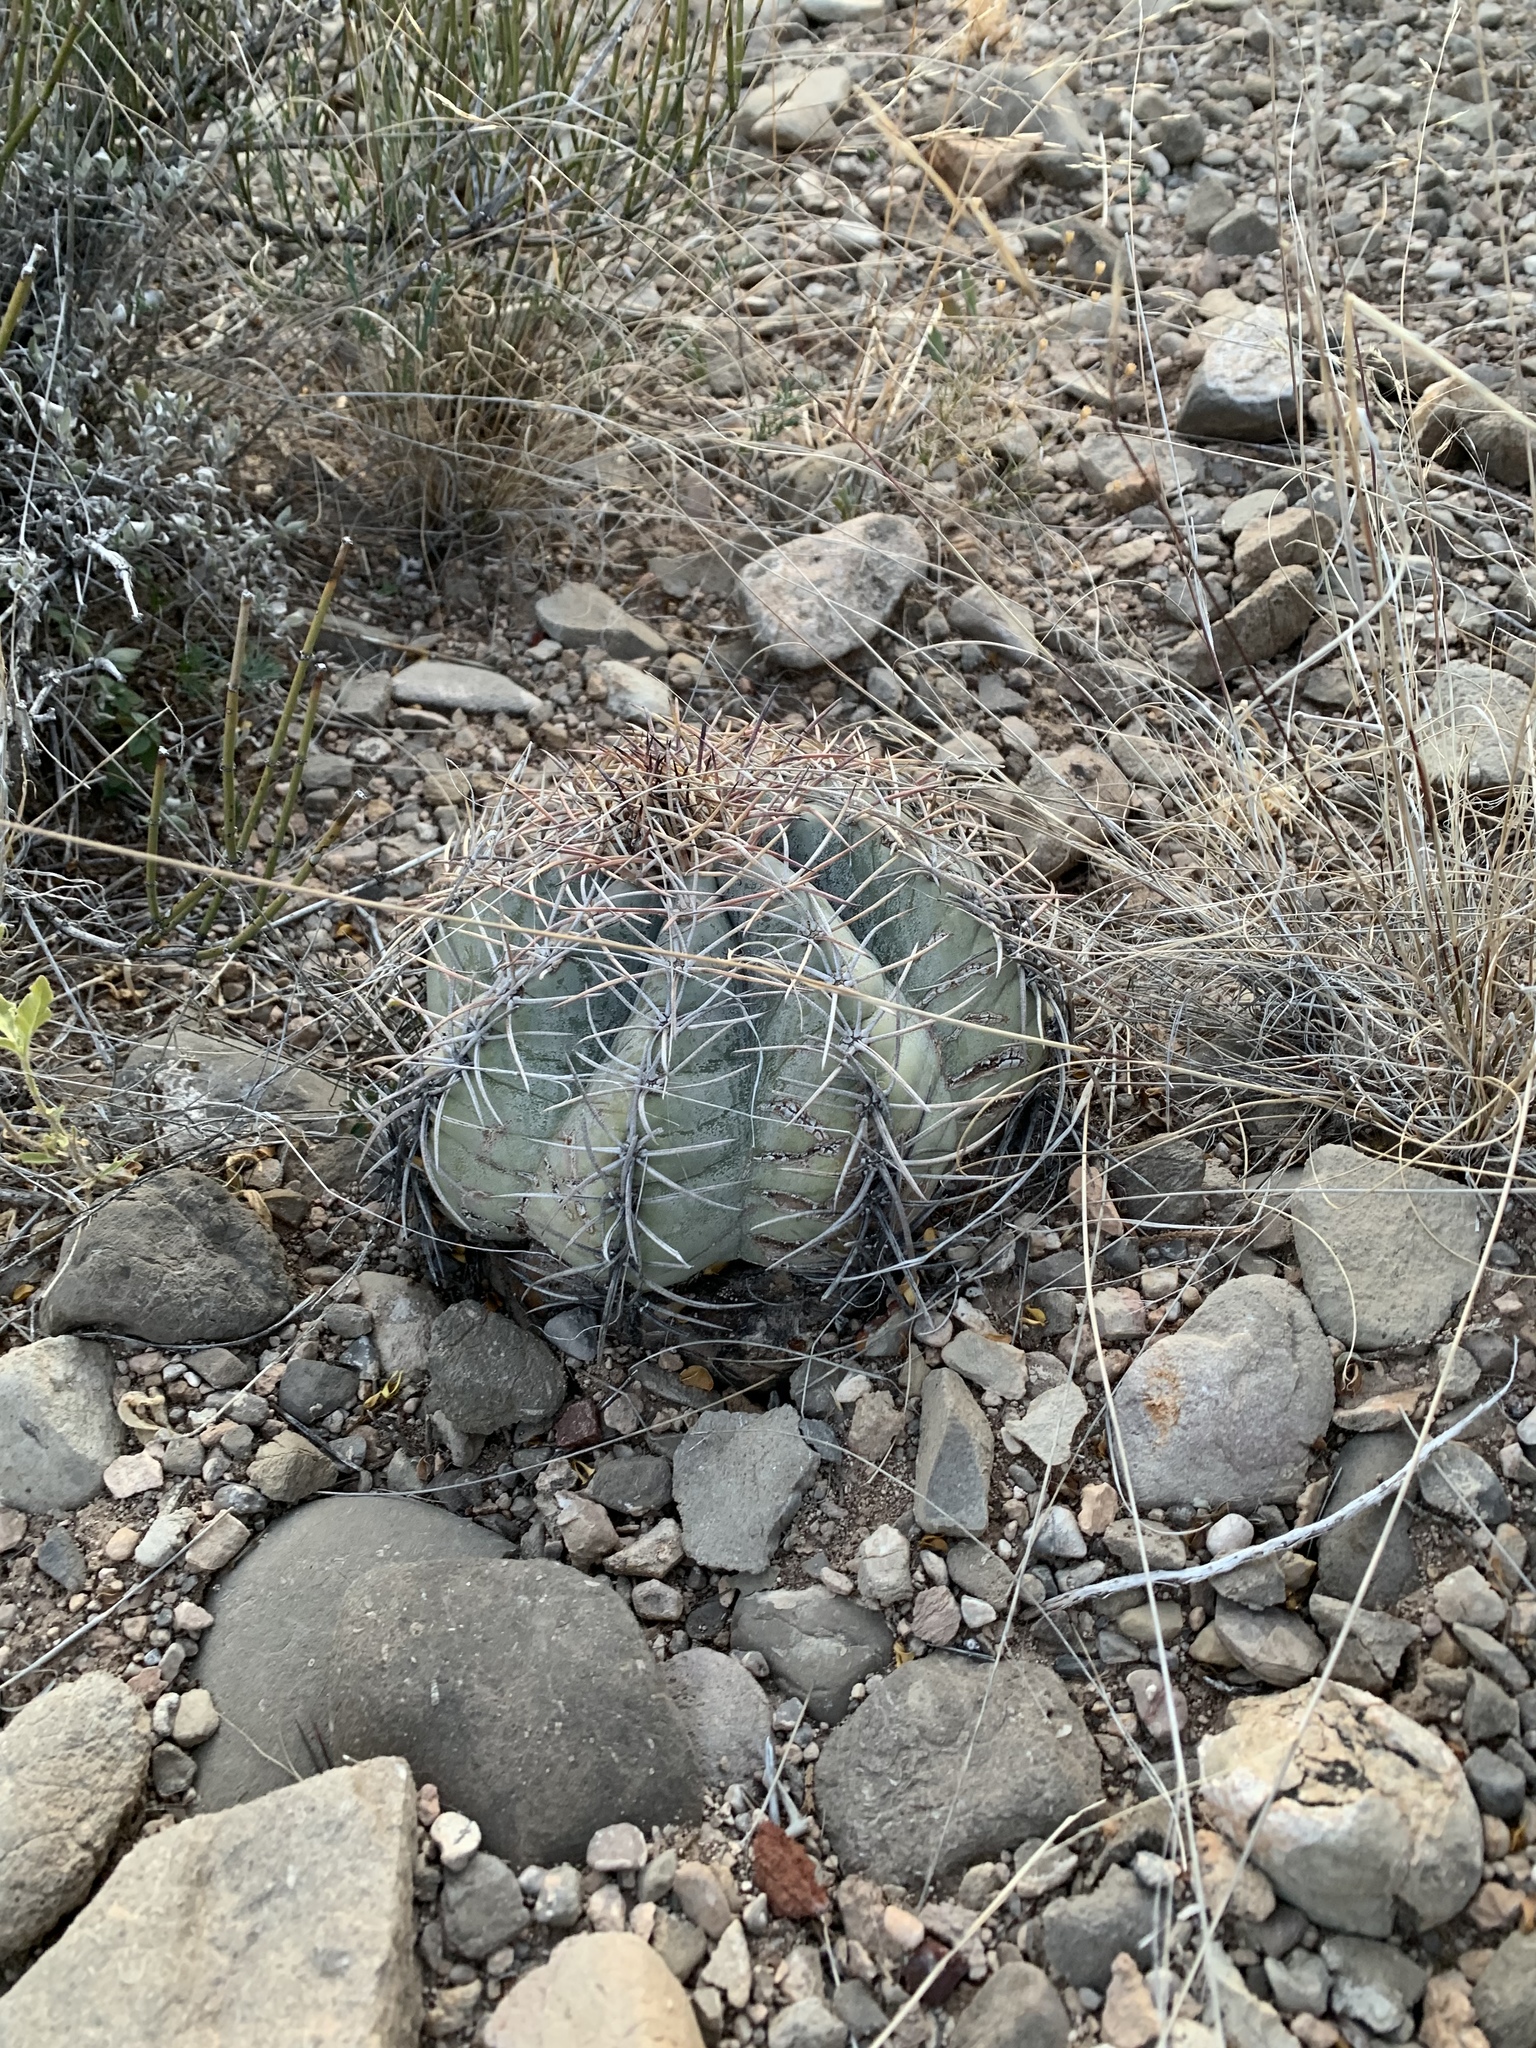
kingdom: Plantae
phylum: Tracheophyta
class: Magnoliopsida
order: Caryophyllales
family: Cactaceae
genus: Echinocactus
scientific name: Echinocactus horizonthalonius
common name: Devilshead
